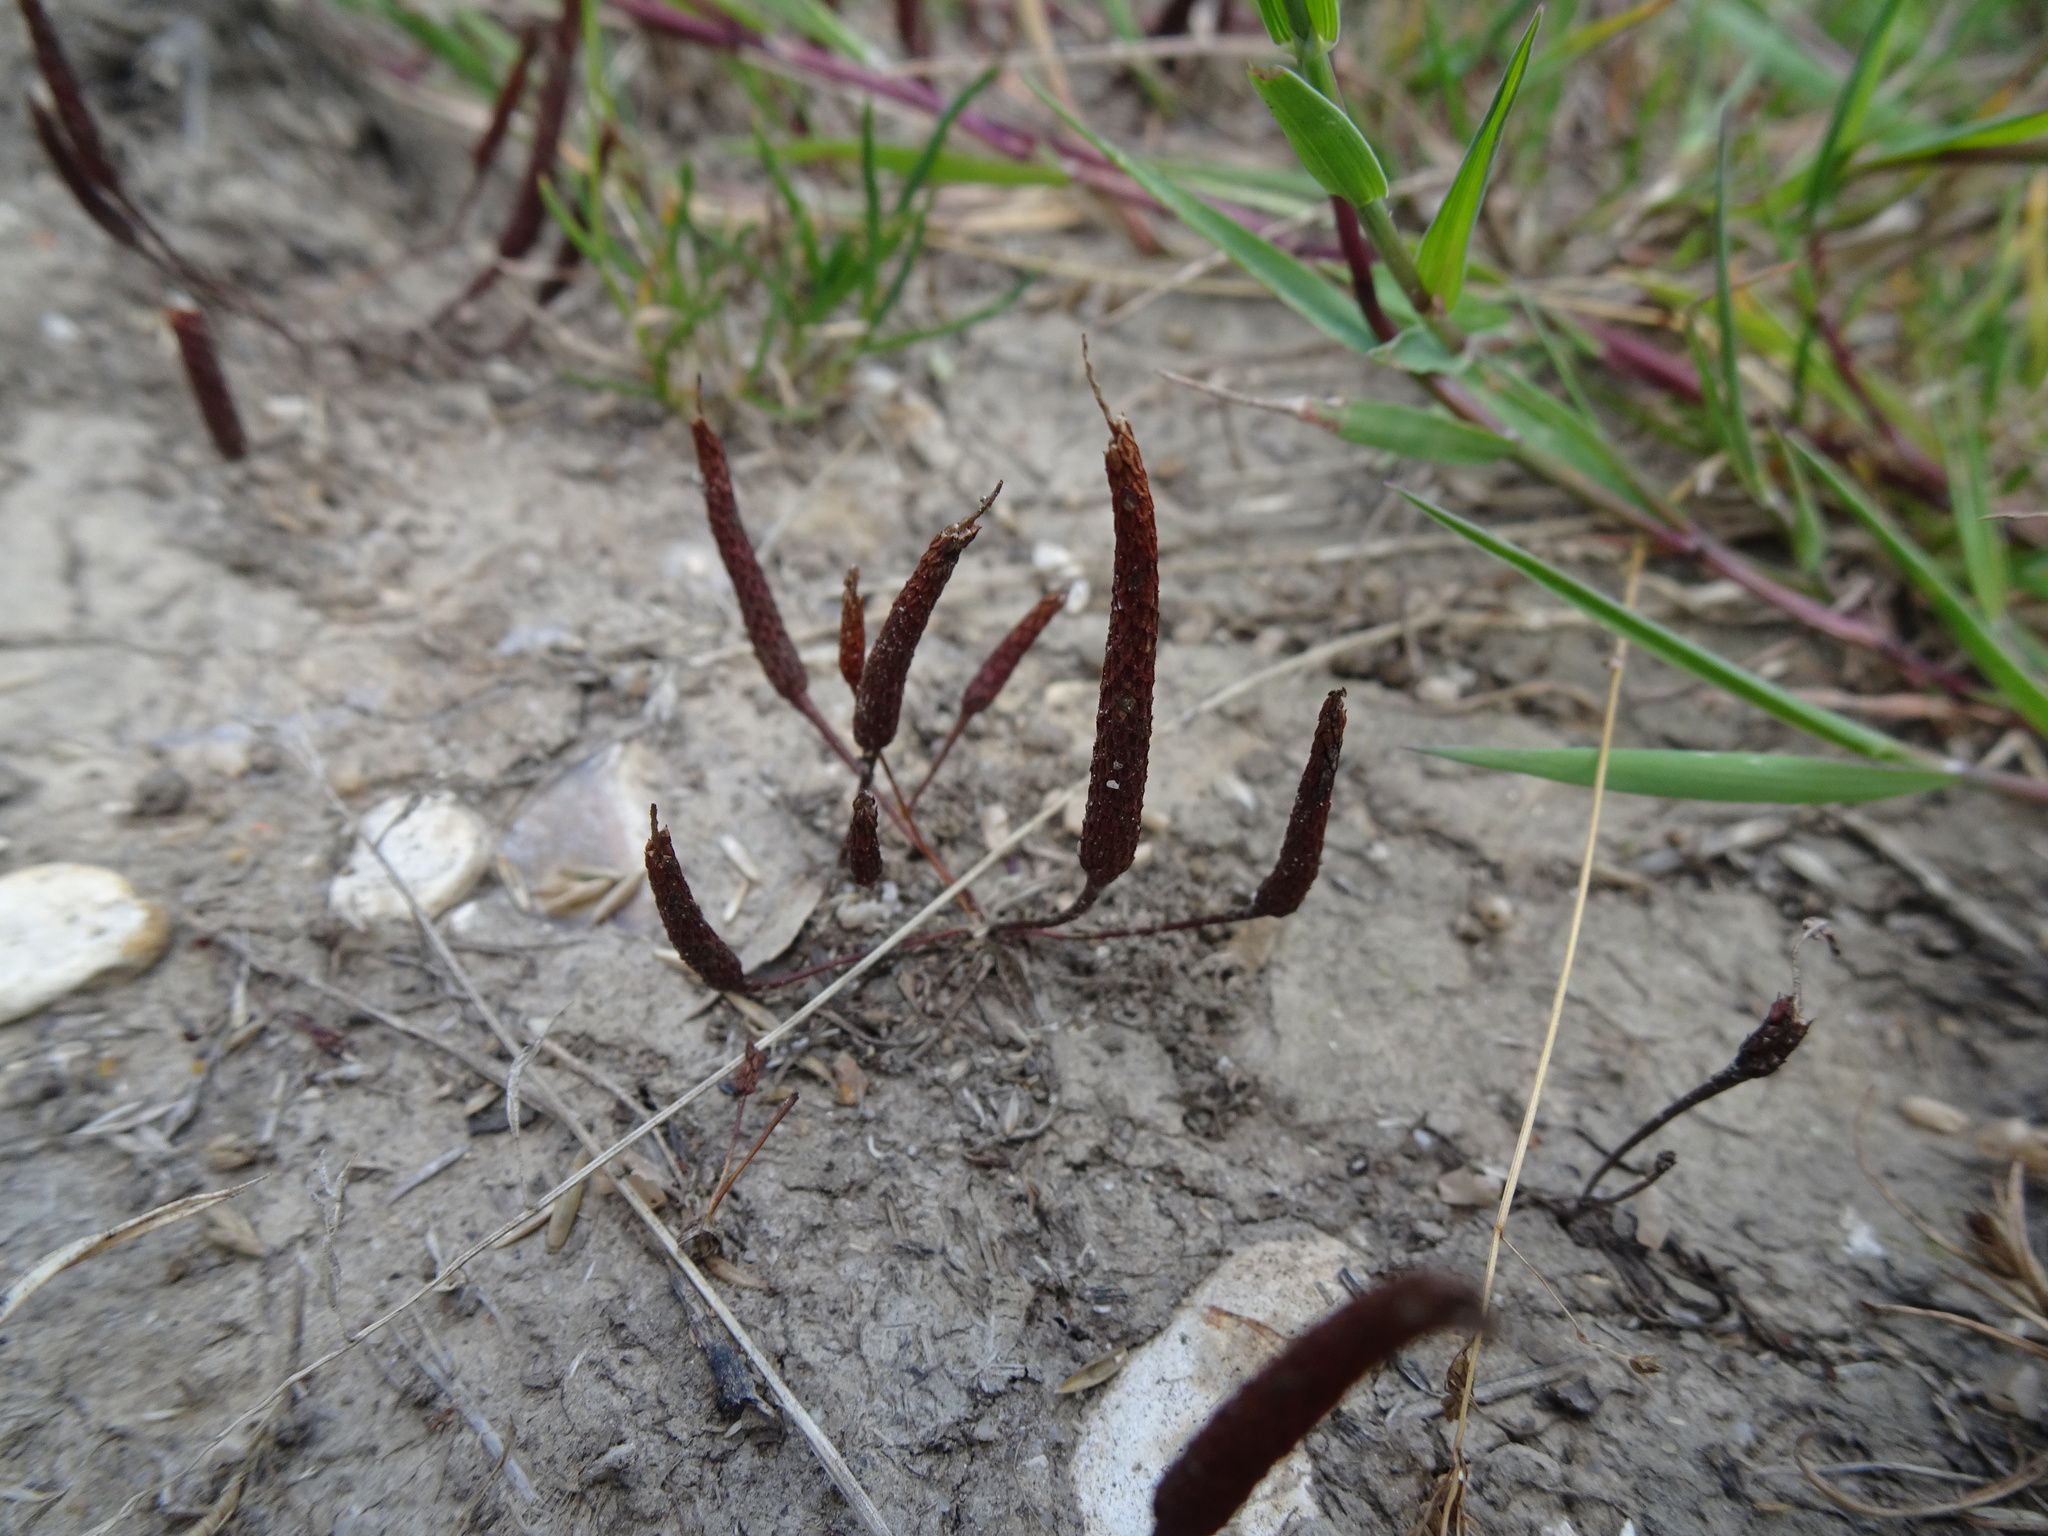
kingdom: Plantae
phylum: Tracheophyta
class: Magnoliopsida
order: Ranunculales
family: Ranunculaceae
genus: Myosurus
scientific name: Myosurus minimus
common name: Mousetail
